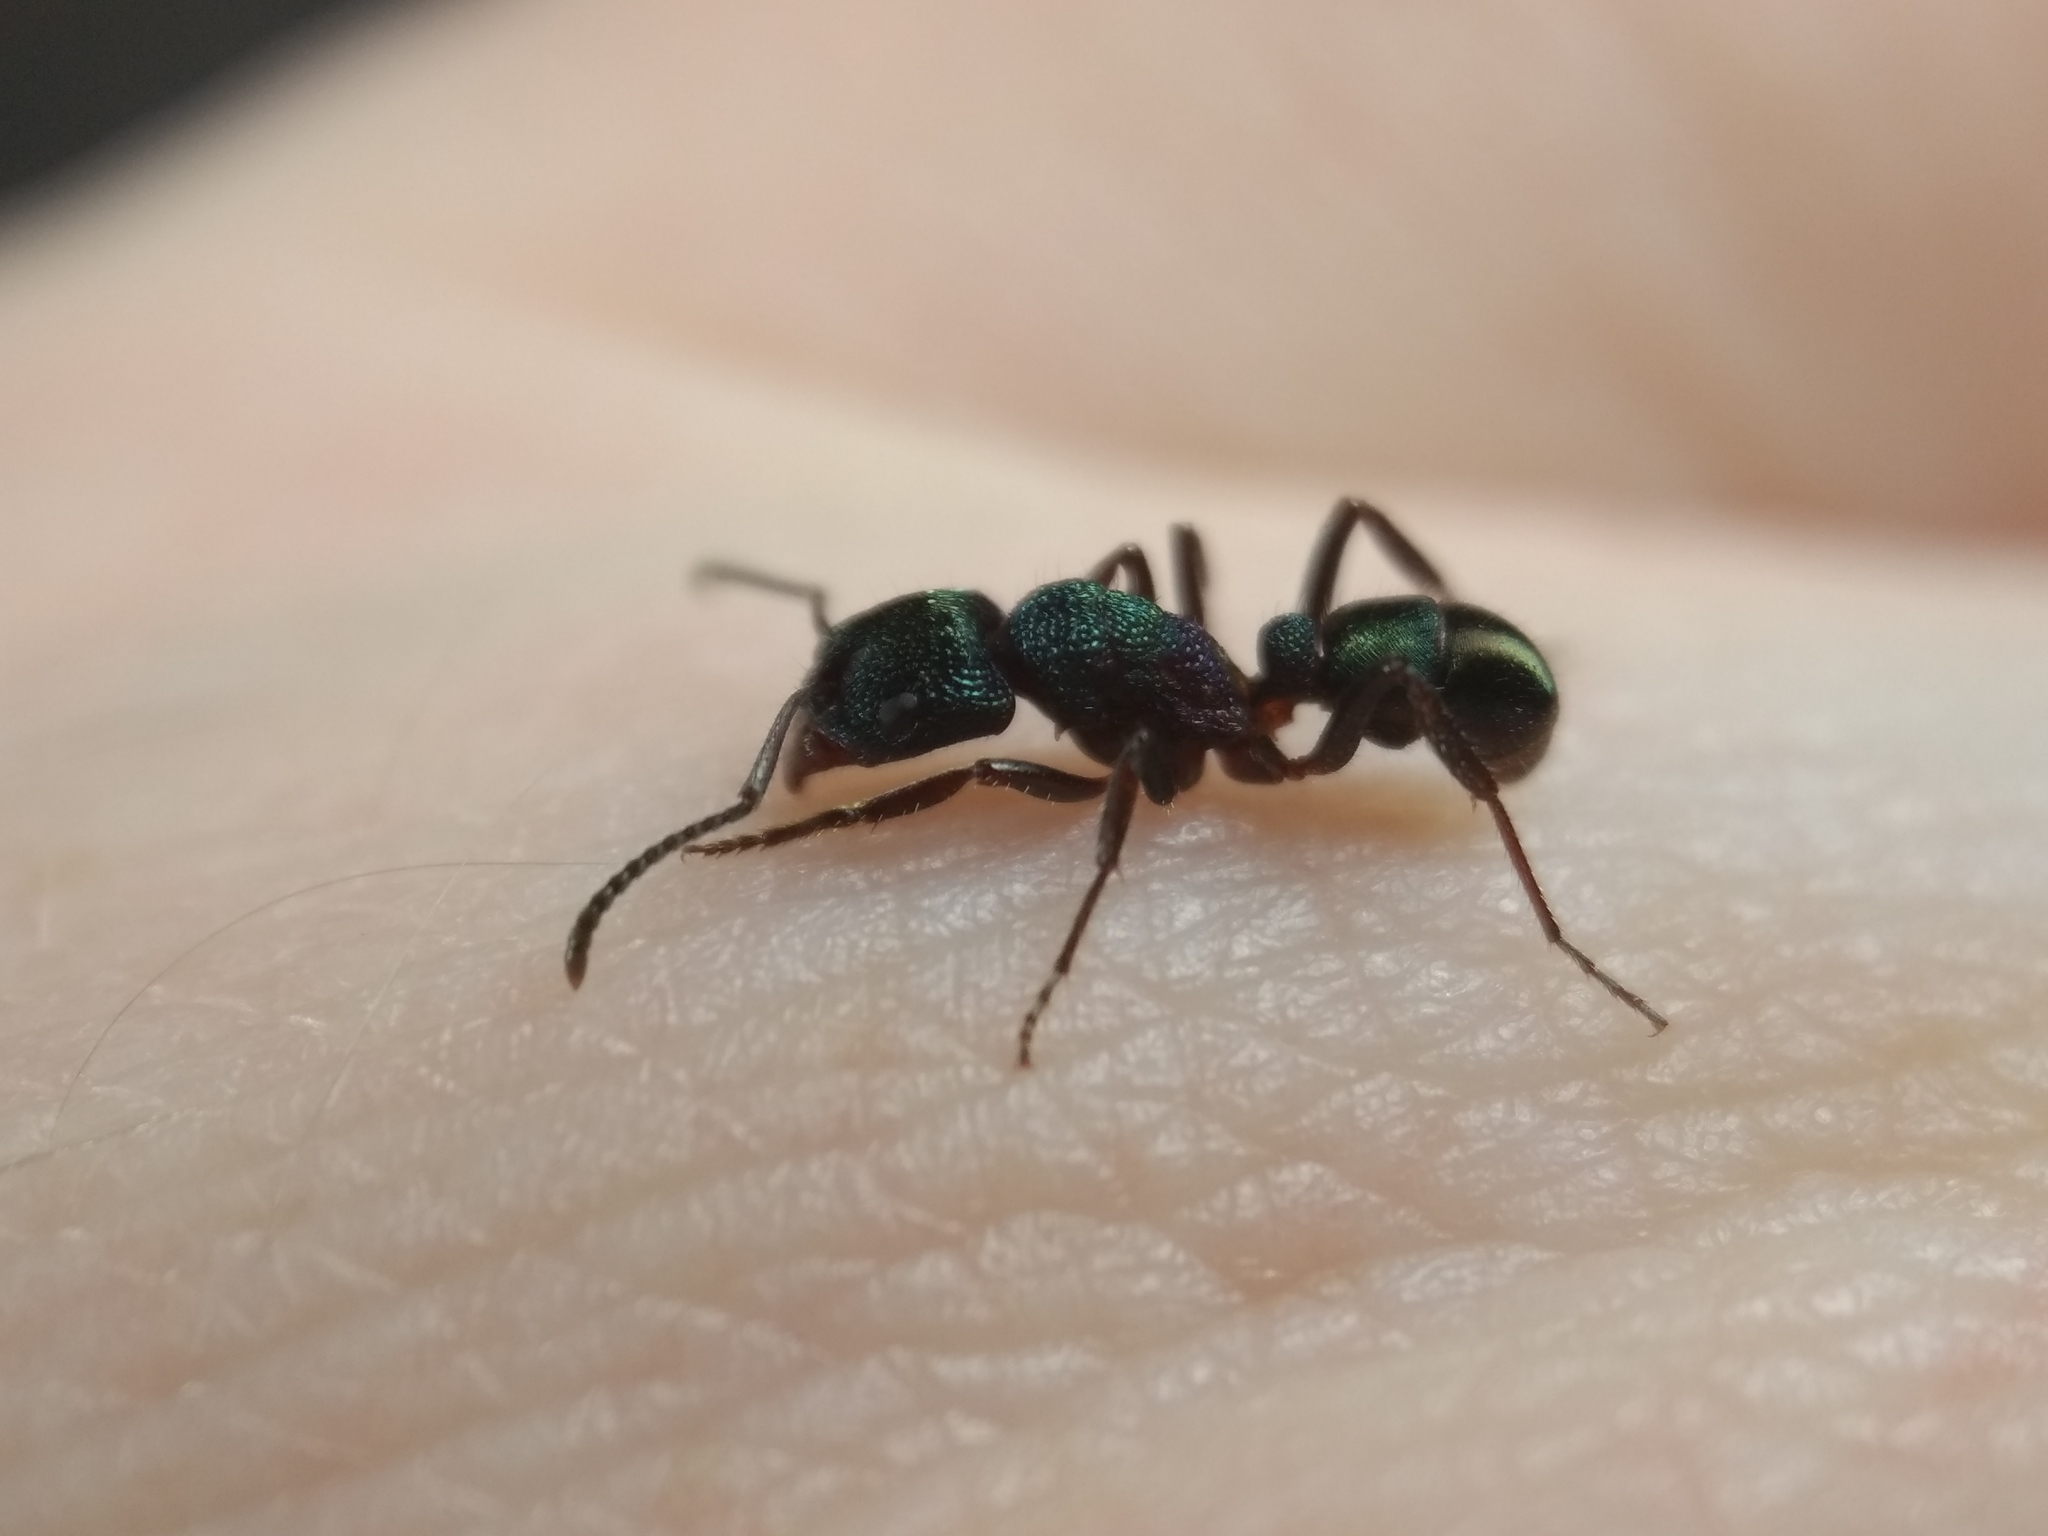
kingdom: Animalia
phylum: Arthropoda
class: Insecta
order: Hymenoptera
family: Formicidae
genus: Rhytidoponera
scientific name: Rhytidoponera metallica
